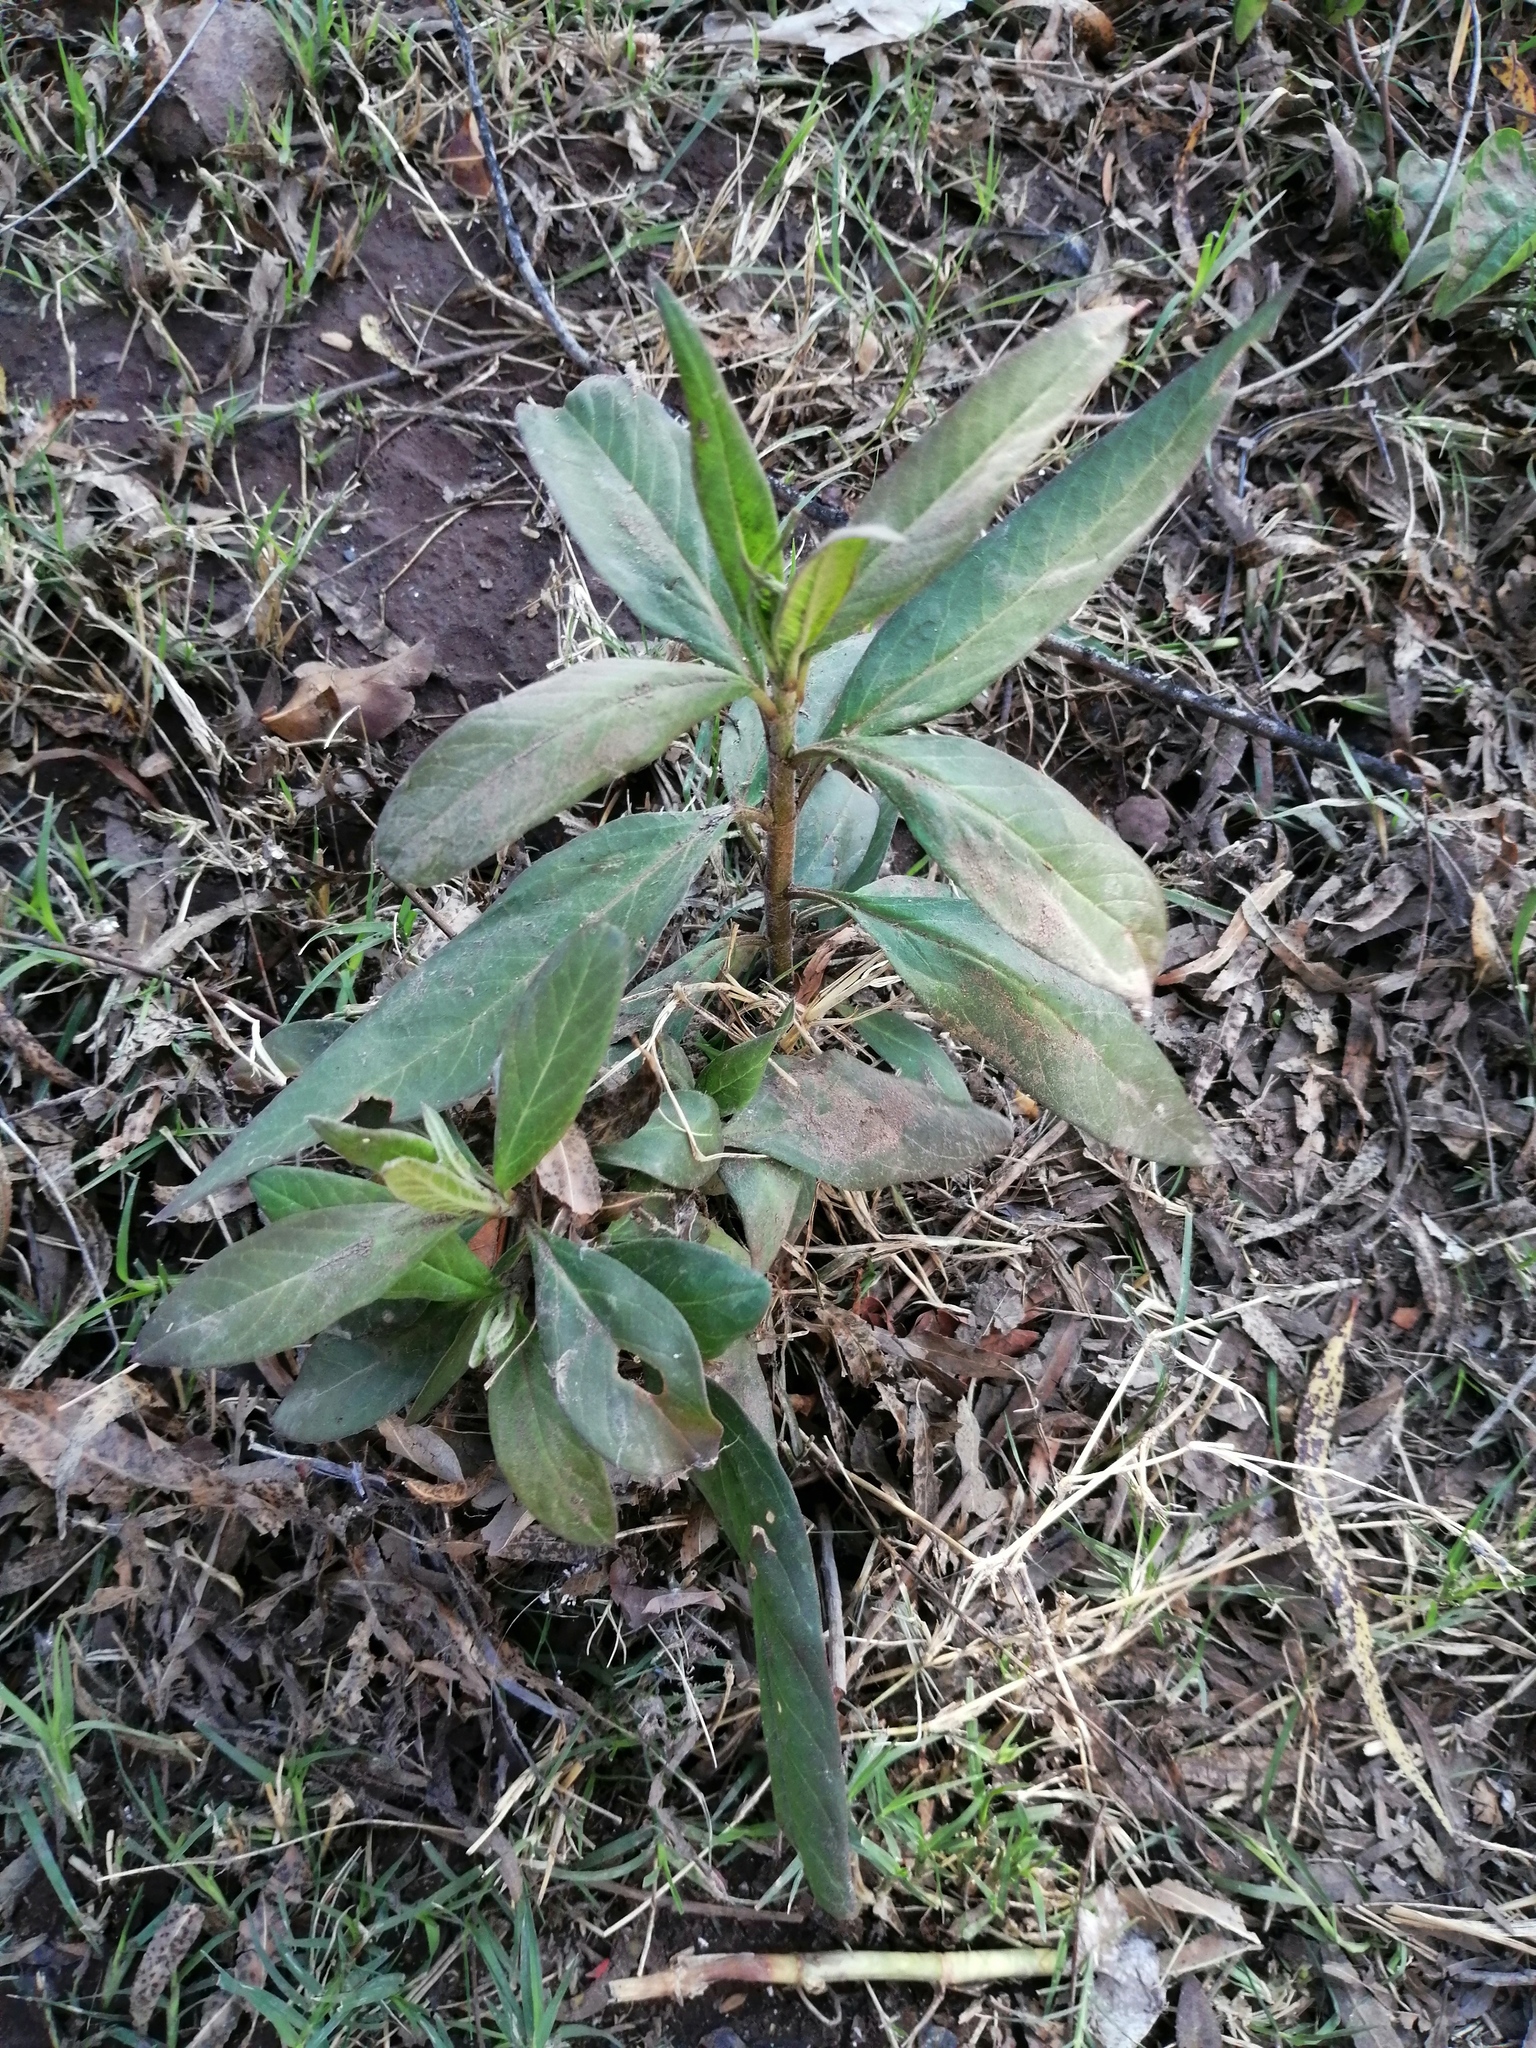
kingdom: Plantae
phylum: Tracheophyta
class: Magnoliopsida
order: Gentianales
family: Apocynaceae
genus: Asclepias
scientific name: Asclepias curassavica
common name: Bloodflower
